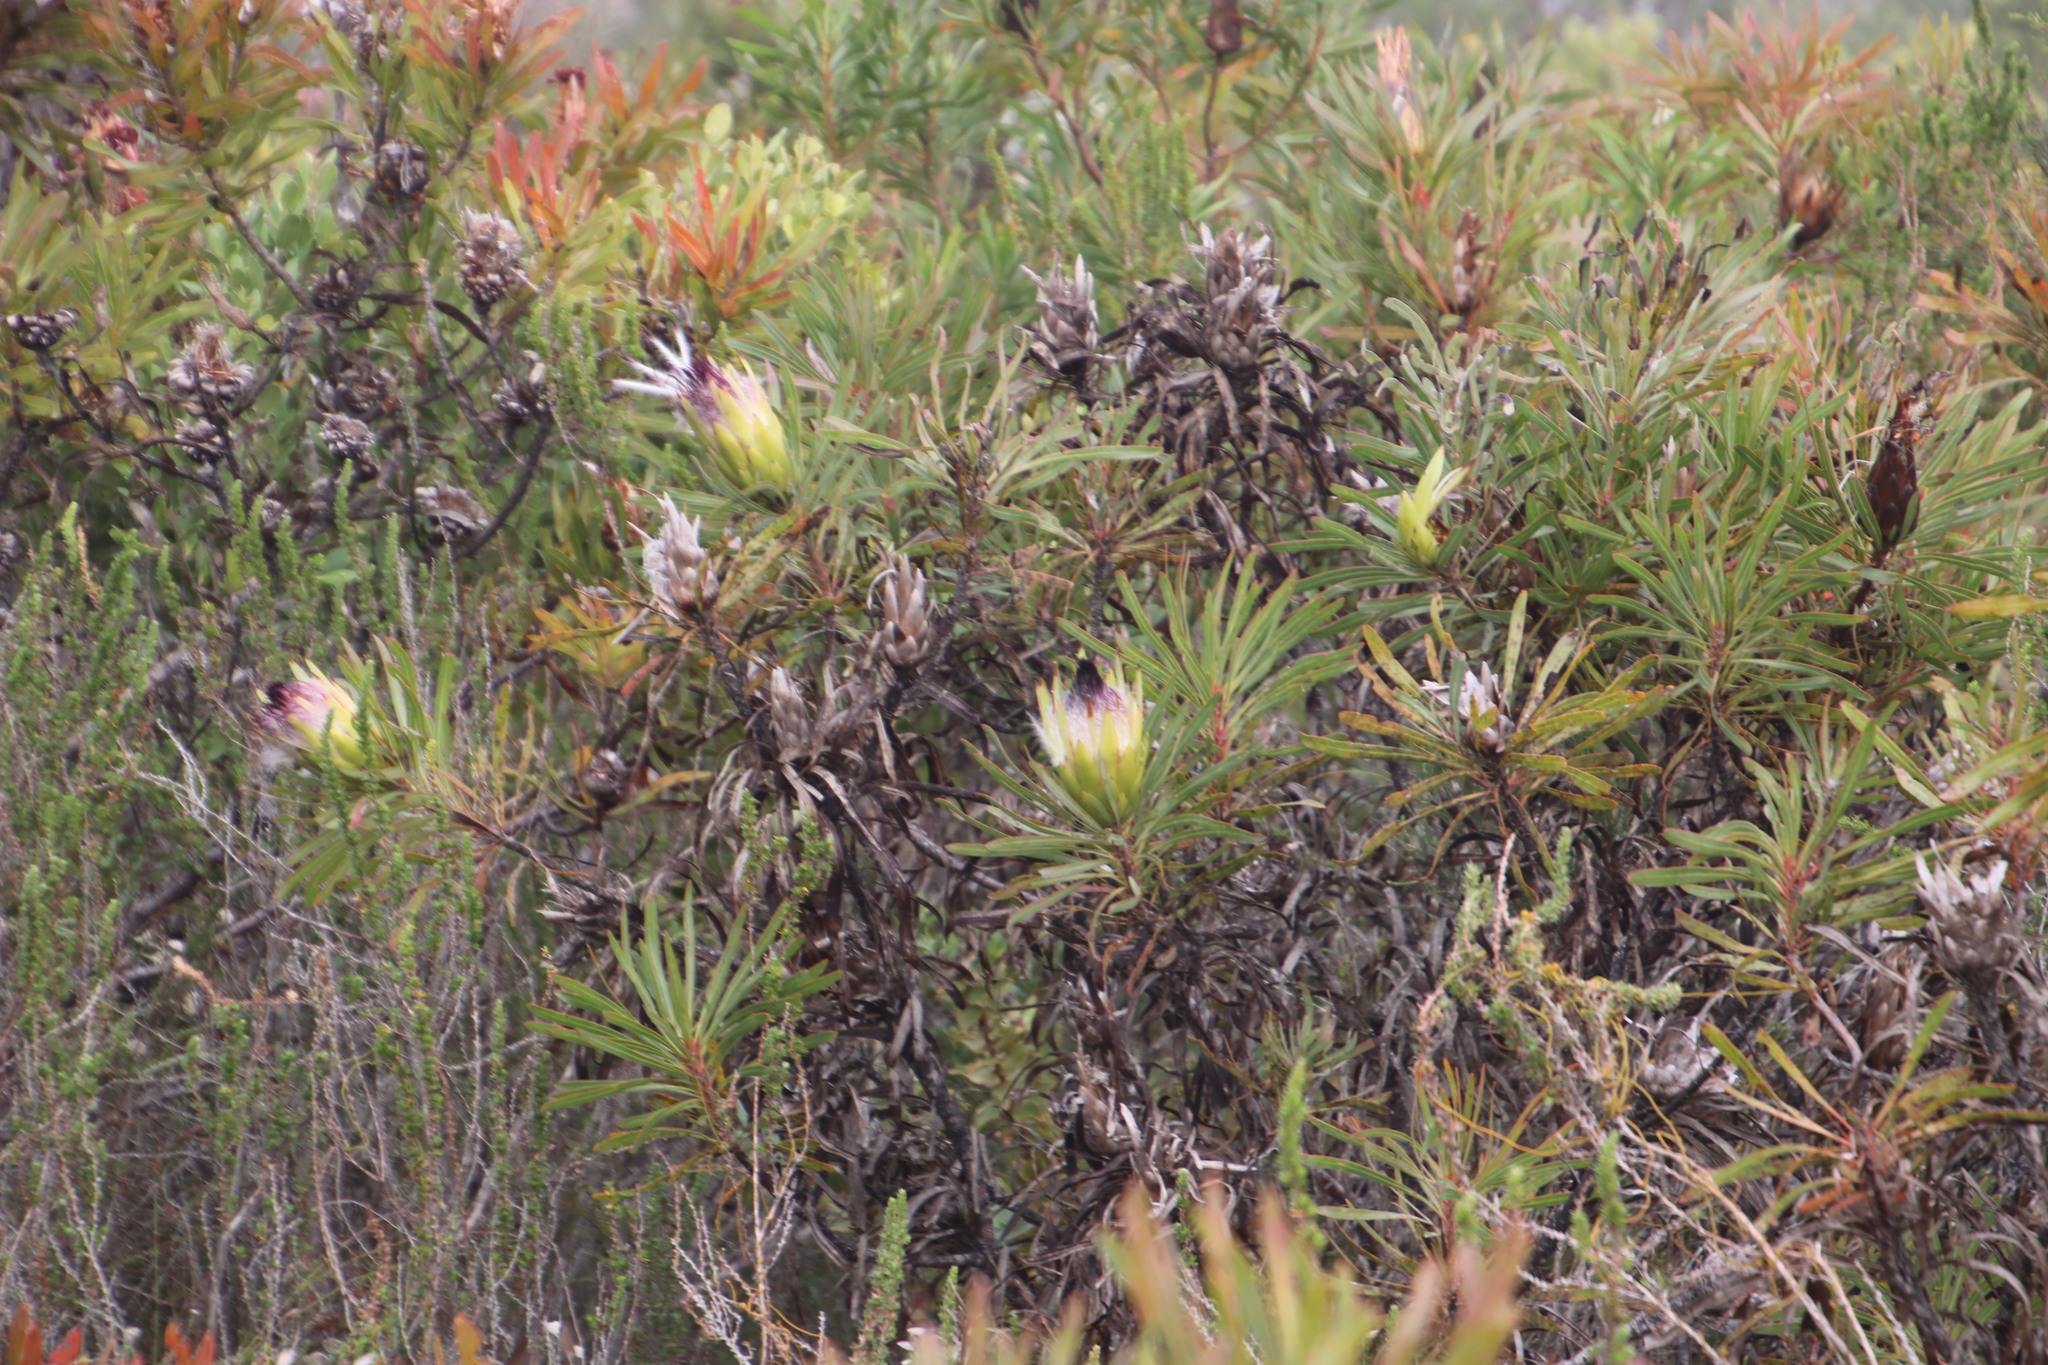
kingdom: Plantae
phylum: Tracheophyta
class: Magnoliopsida
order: Proteales
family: Proteaceae
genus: Protea
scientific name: Protea longifolia
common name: Long-leaf sugarbush
